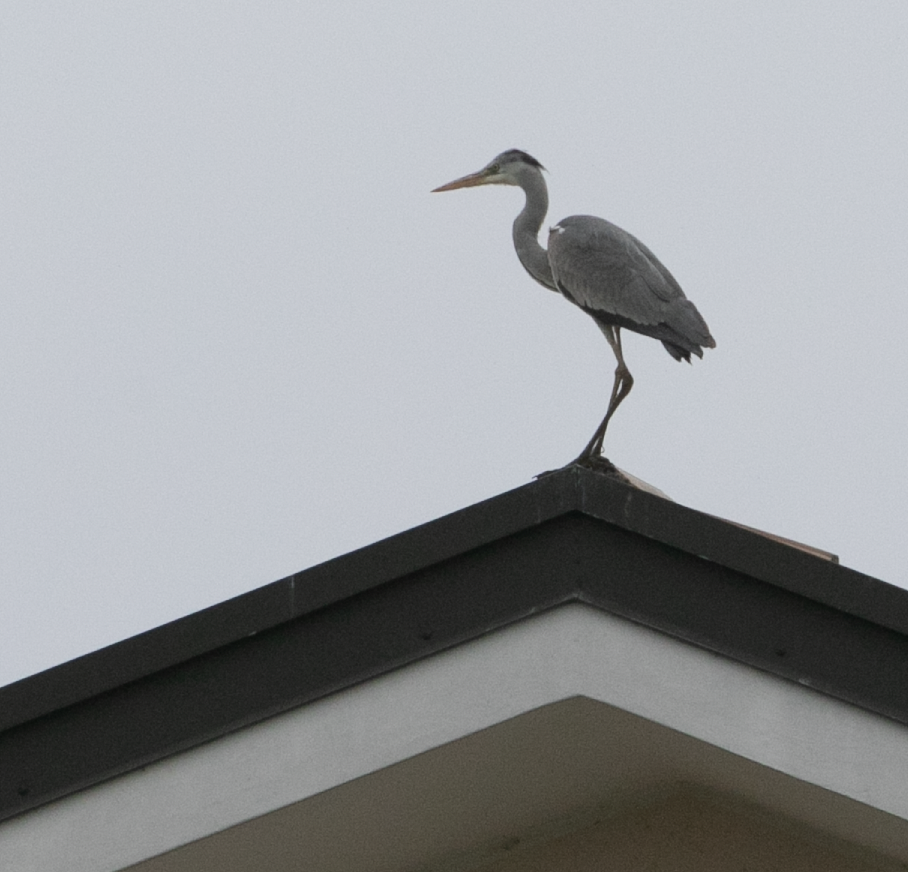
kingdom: Animalia
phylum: Chordata
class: Aves
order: Pelecaniformes
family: Ardeidae
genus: Ardea
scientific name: Ardea cinerea
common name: Grey heron
